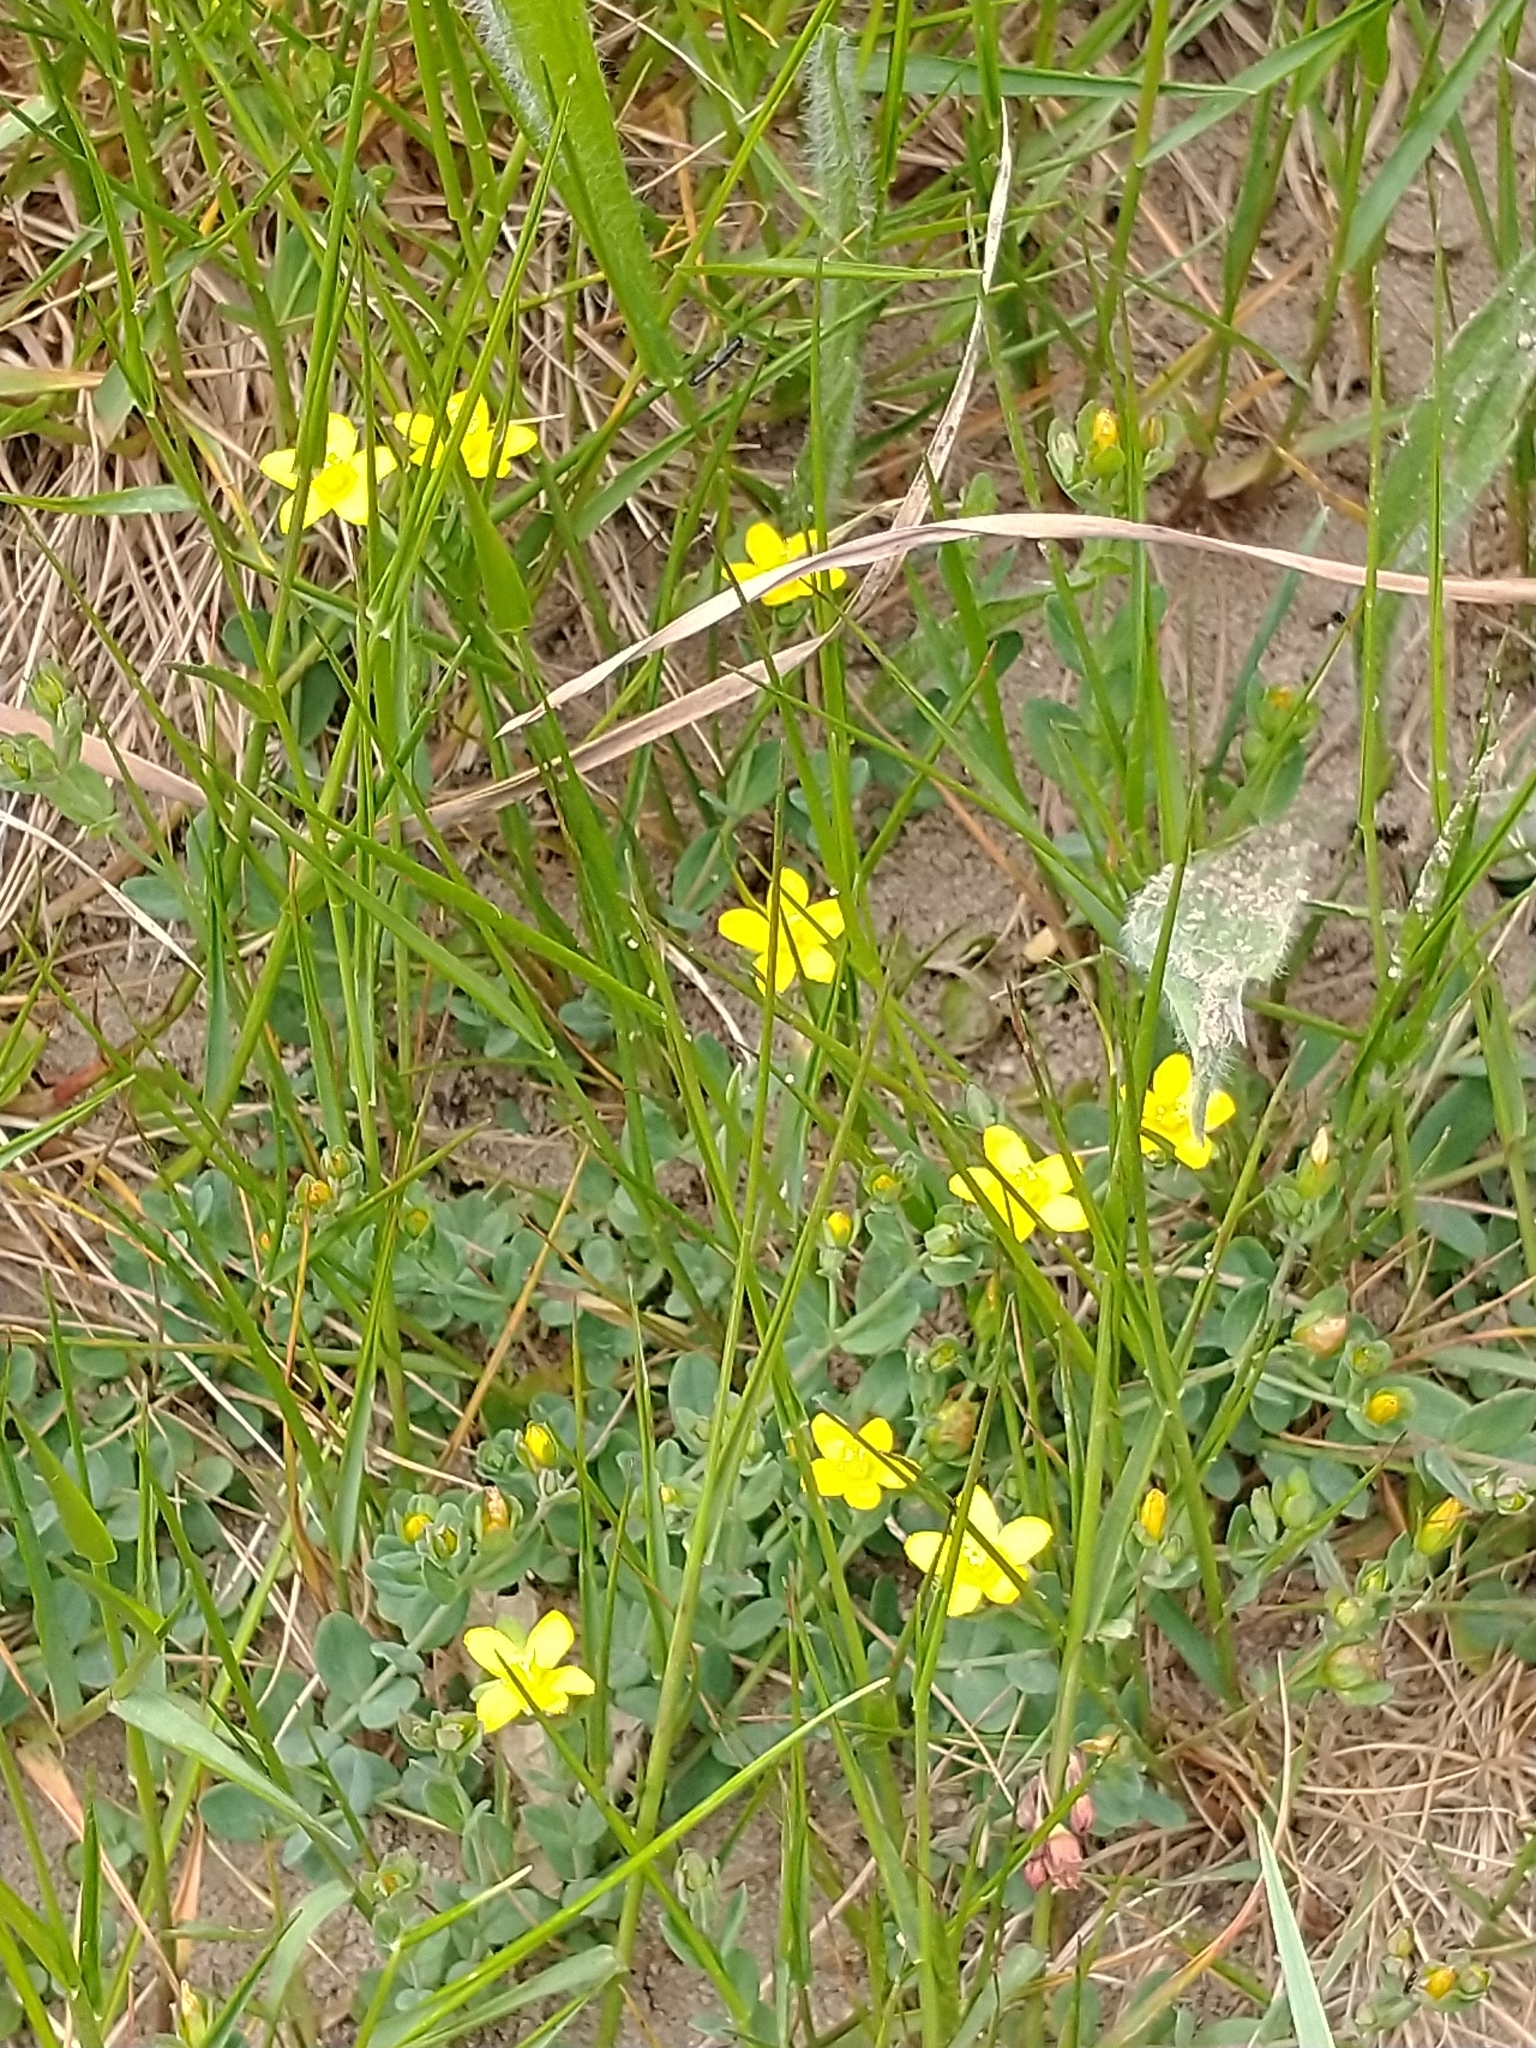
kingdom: Plantae
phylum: Tracheophyta
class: Magnoliopsida
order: Malpighiales
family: Hypericaceae
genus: Hypericum
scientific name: Hypericum humifusum
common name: Trailing st. john's-wort
